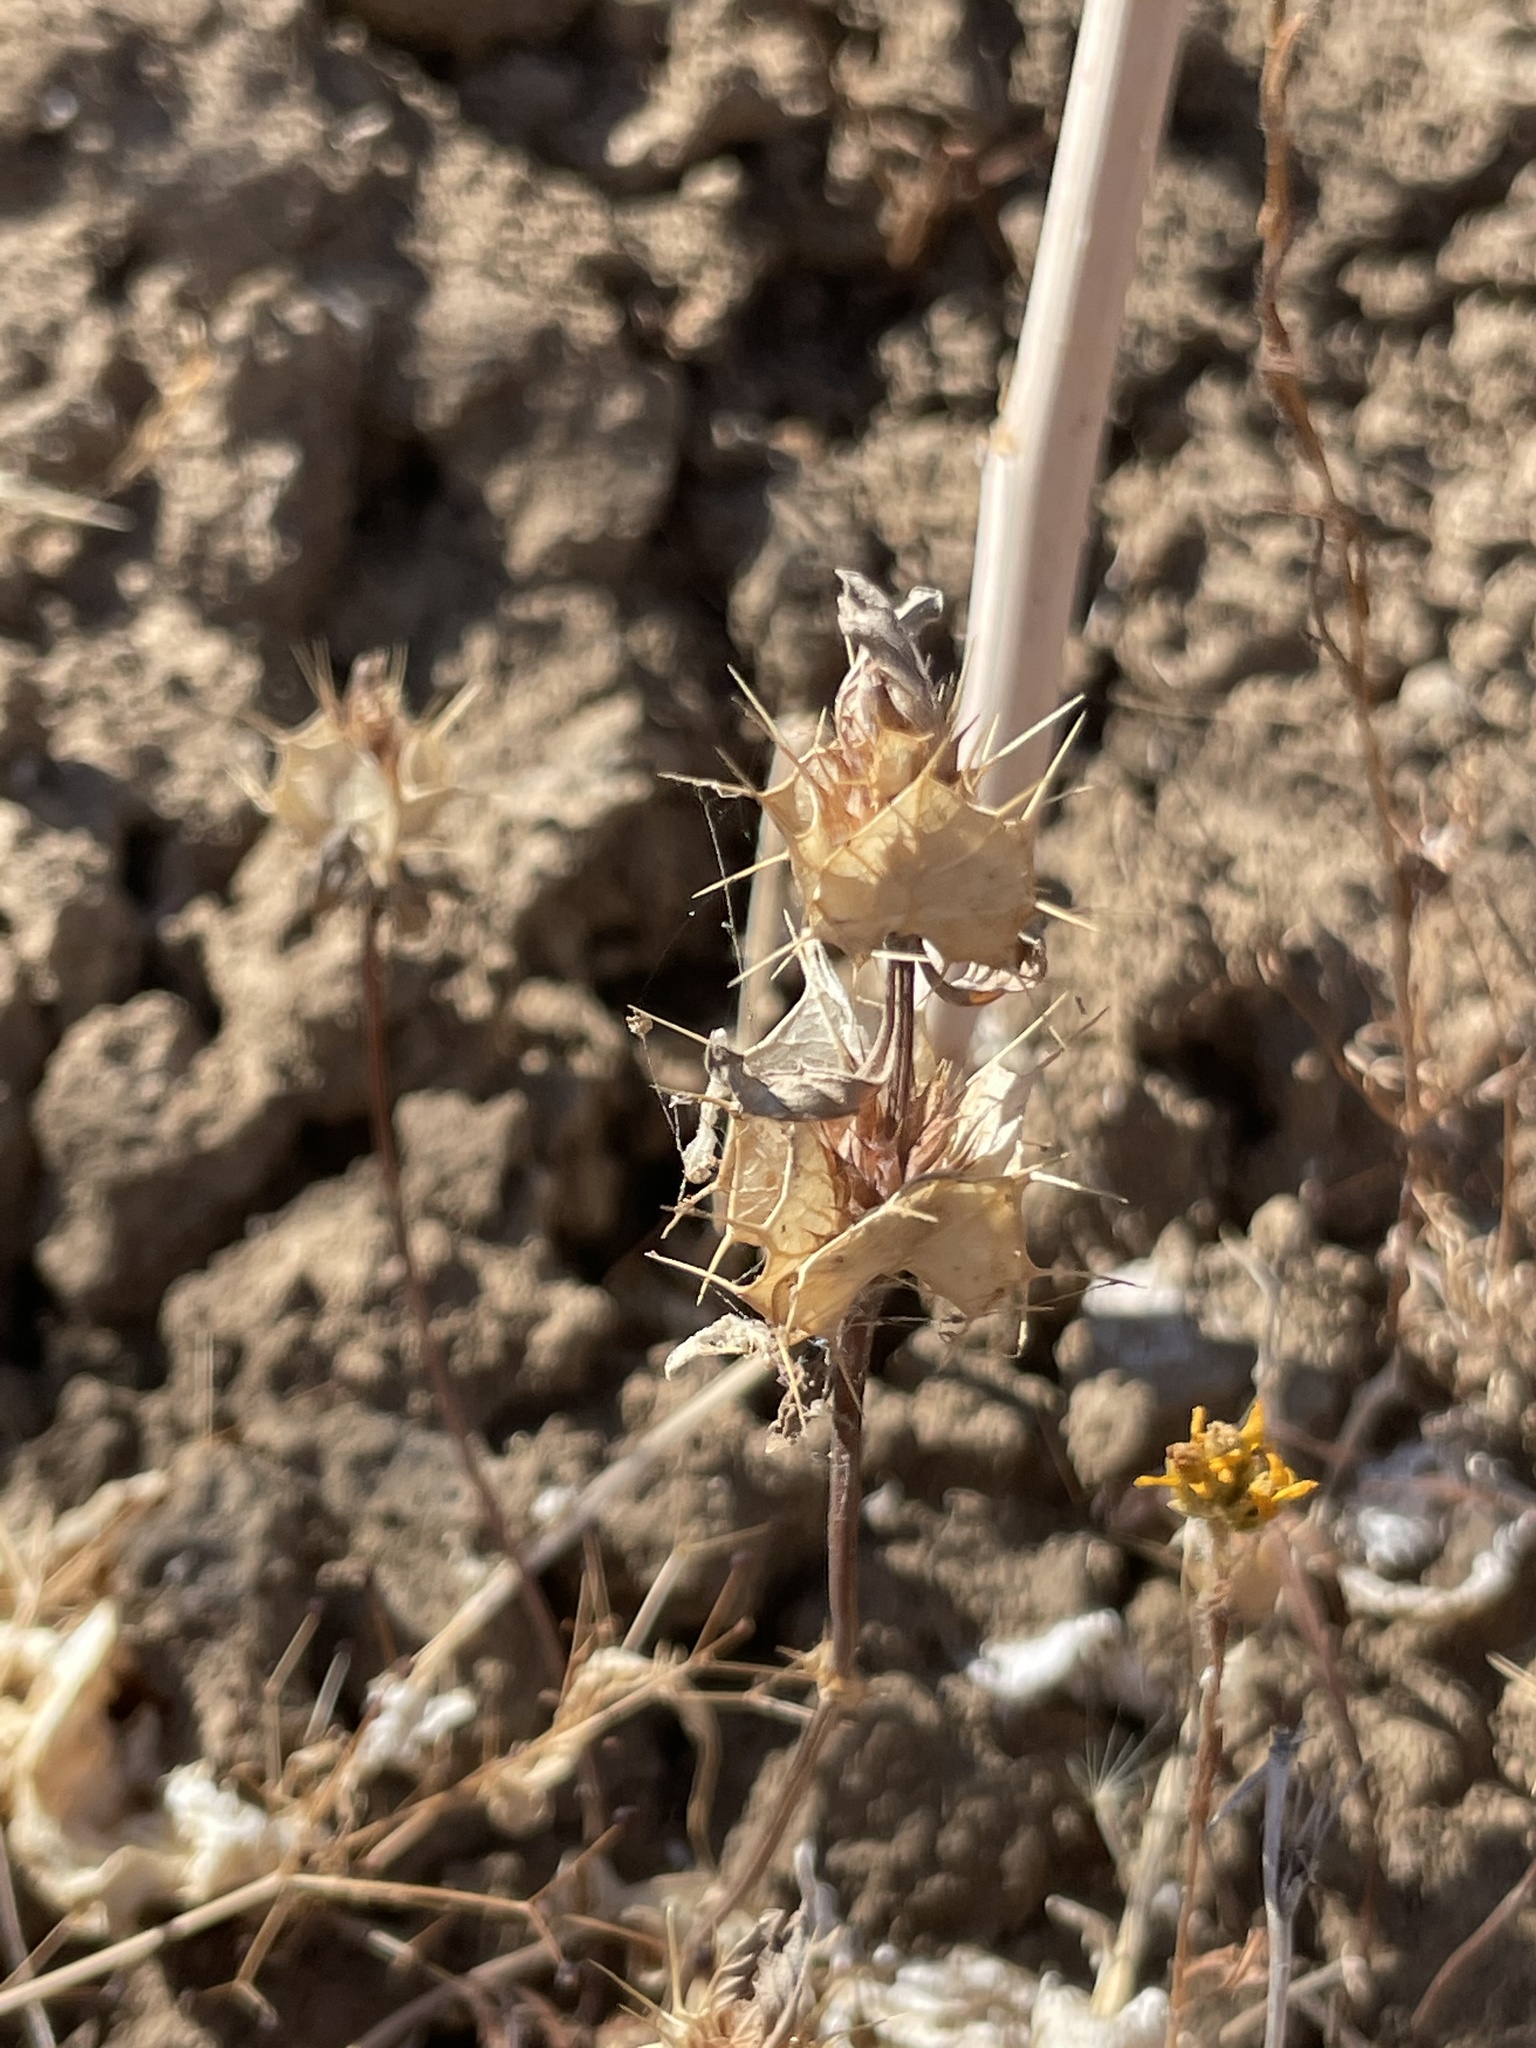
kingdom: Plantae
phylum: Tracheophyta
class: Magnoliopsida
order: Lamiales
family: Lamiaceae
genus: Acanthomintha
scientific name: Acanthomintha ilicifolia
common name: San diego thorn-mint
